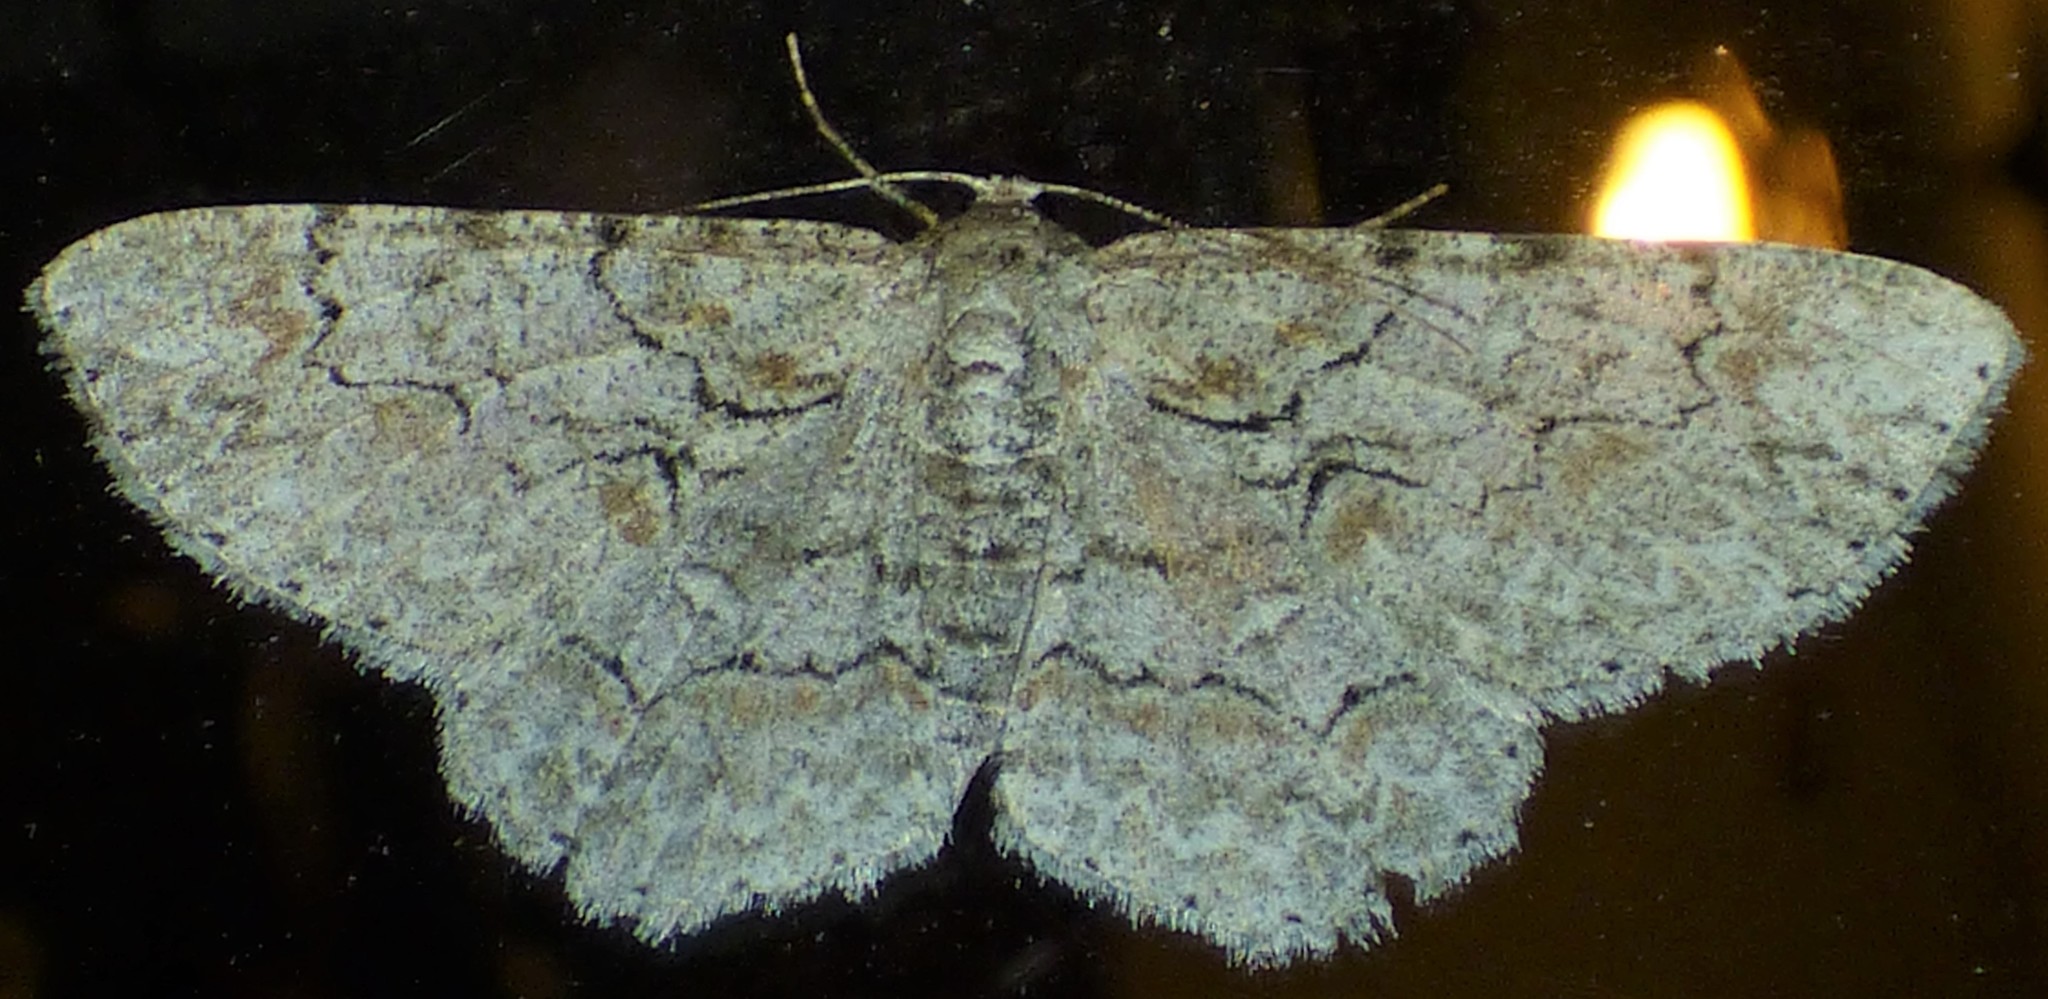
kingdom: Animalia
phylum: Arthropoda
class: Insecta
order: Lepidoptera
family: Geometridae
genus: Iridopsis
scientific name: Iridopsis defectaria
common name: Brown-shaded gray
